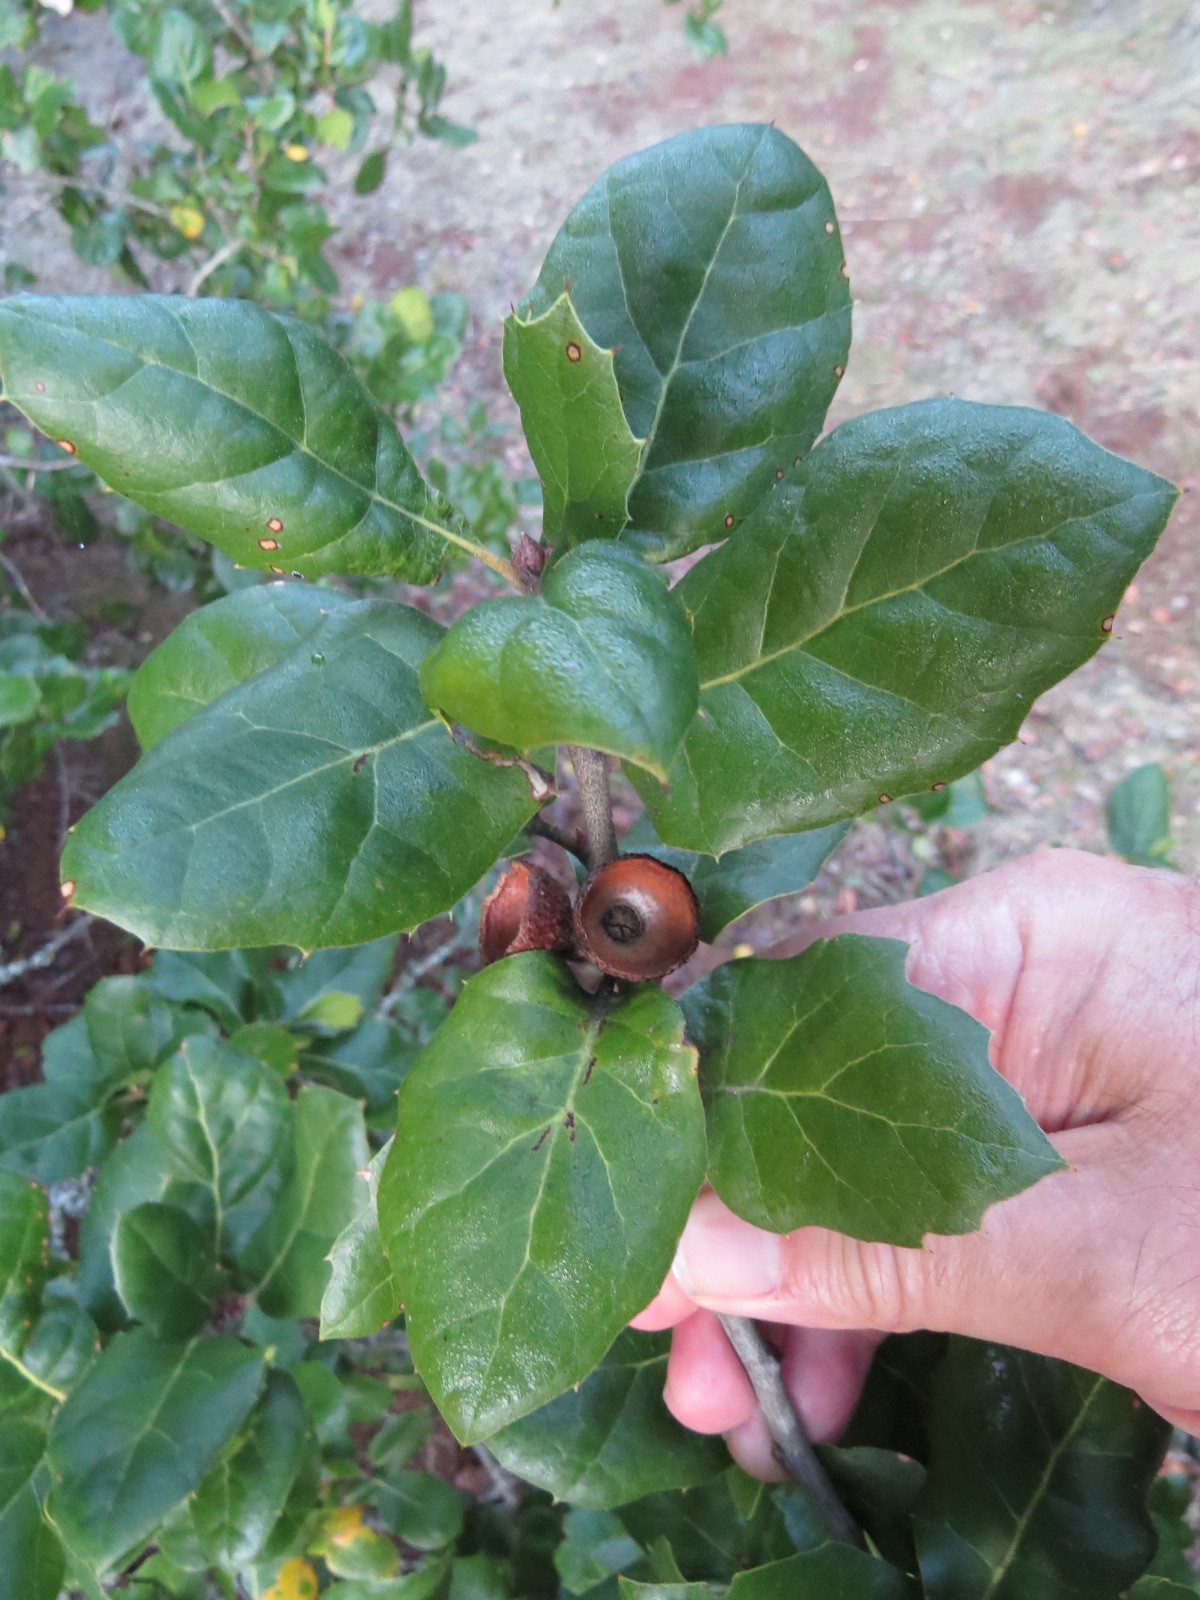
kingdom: Plantae
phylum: Tracheophyta
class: Magnoliopsida
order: Fagales
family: Fagaceae
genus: Quercus
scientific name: Quercus agrifolia
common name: California live oak
